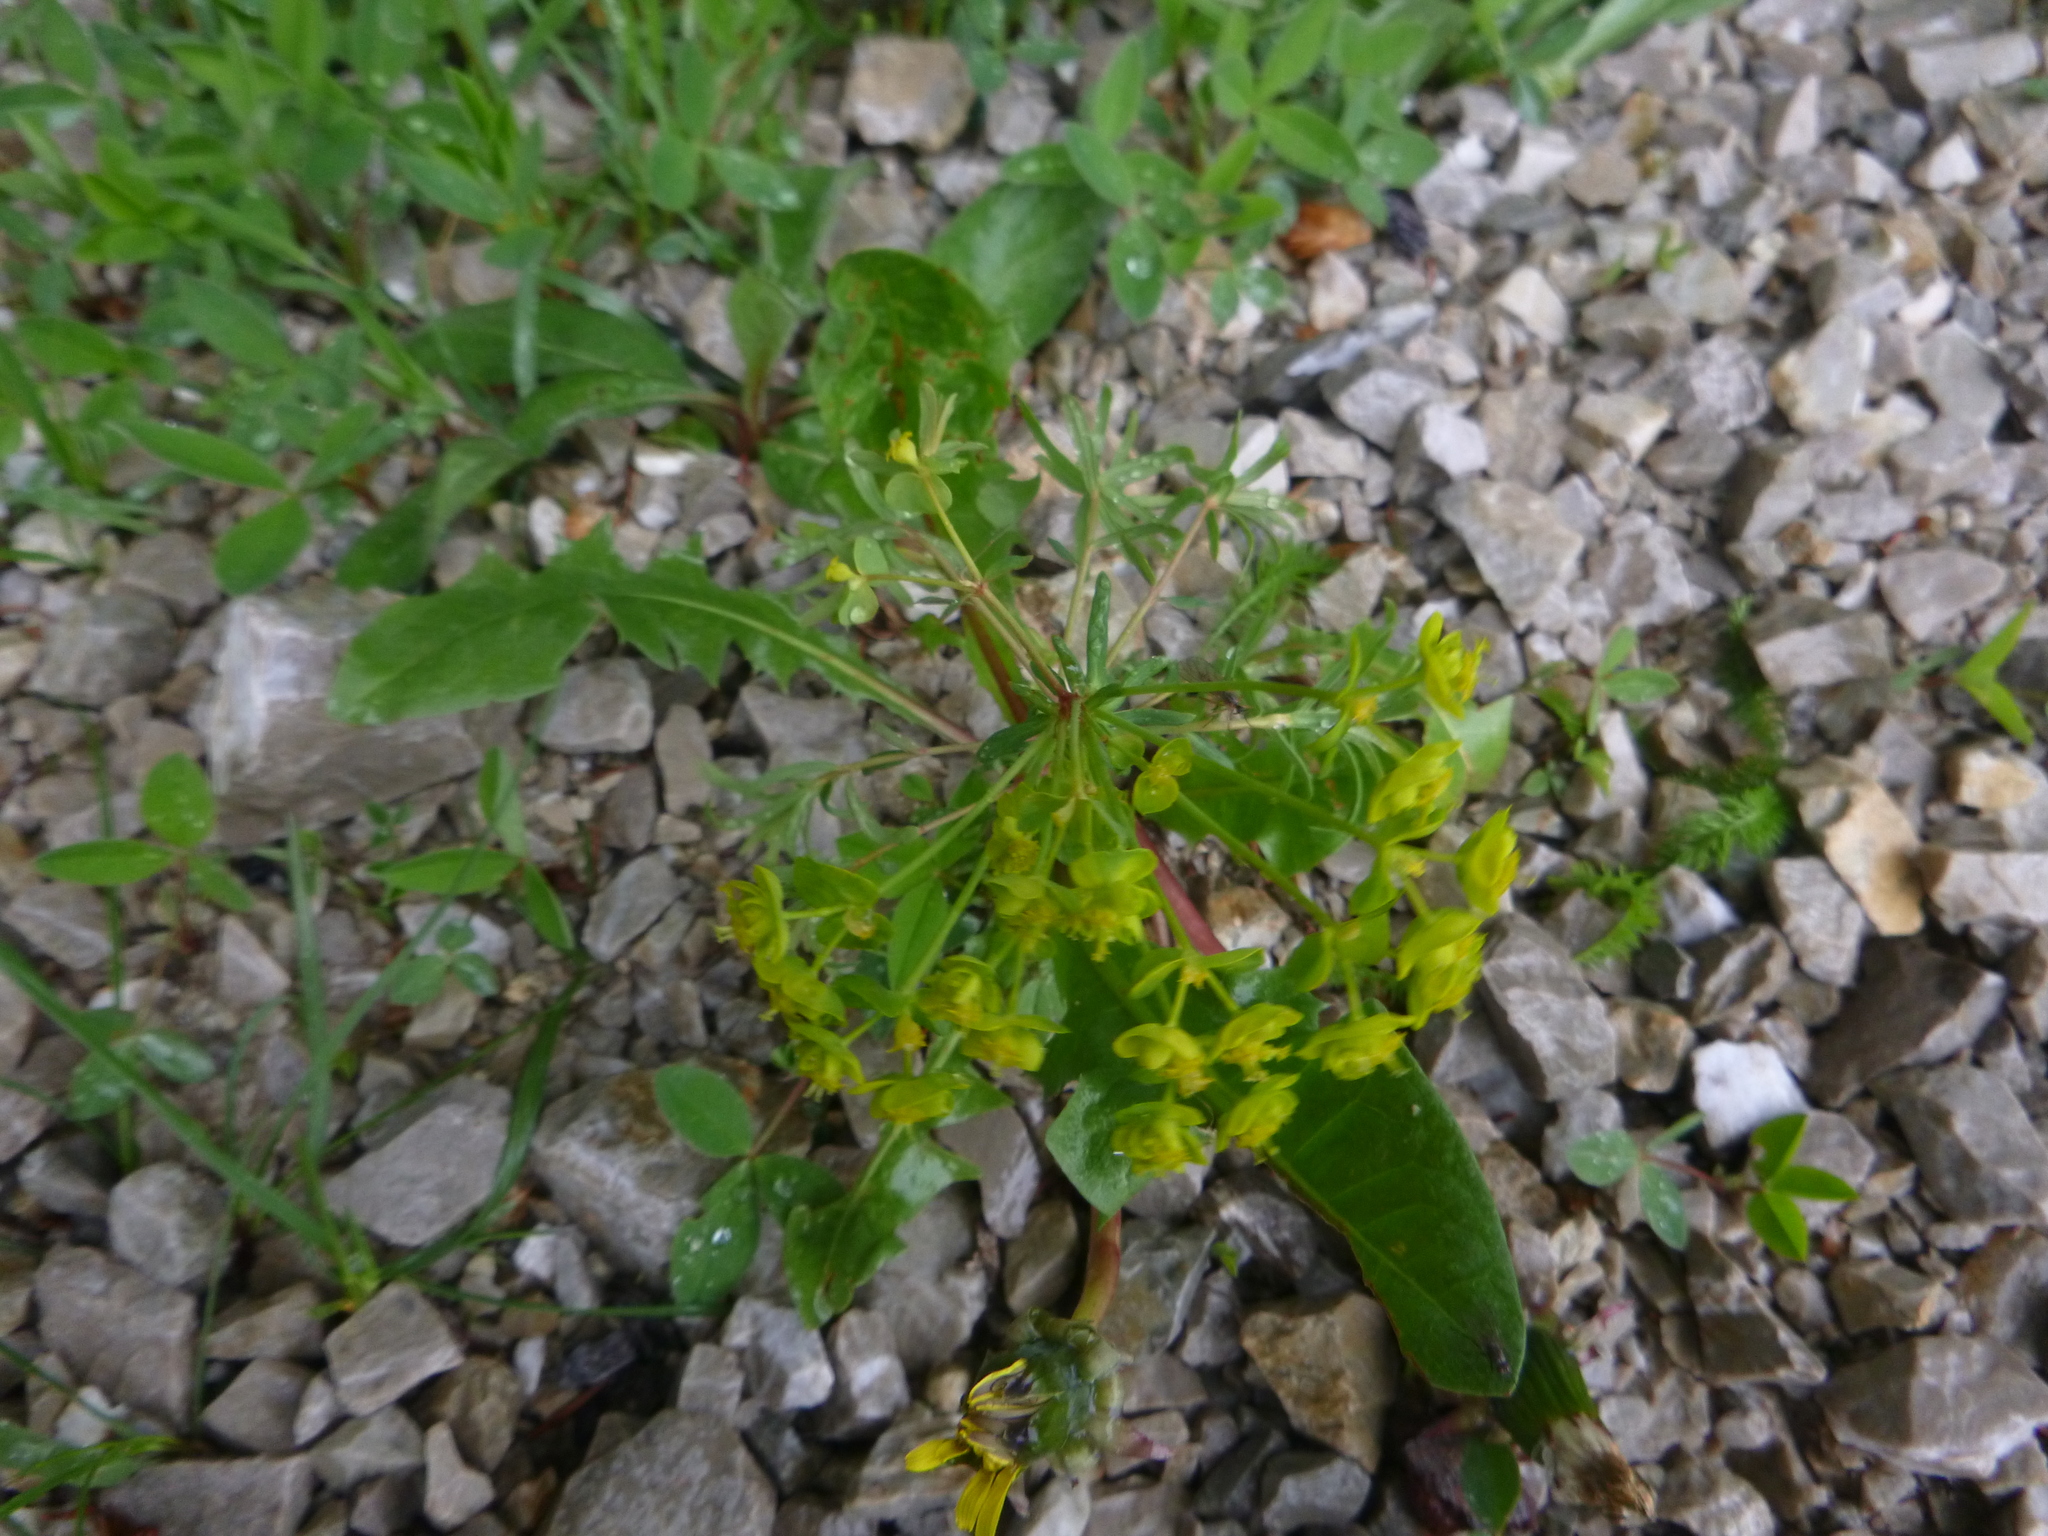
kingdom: Plantae
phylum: Tracheophyta
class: Magnoliopsida
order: Malpighiales
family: Euphorbiaceae
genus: Euphorbia
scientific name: Euphorbia cyparissias
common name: Cypress spurge
